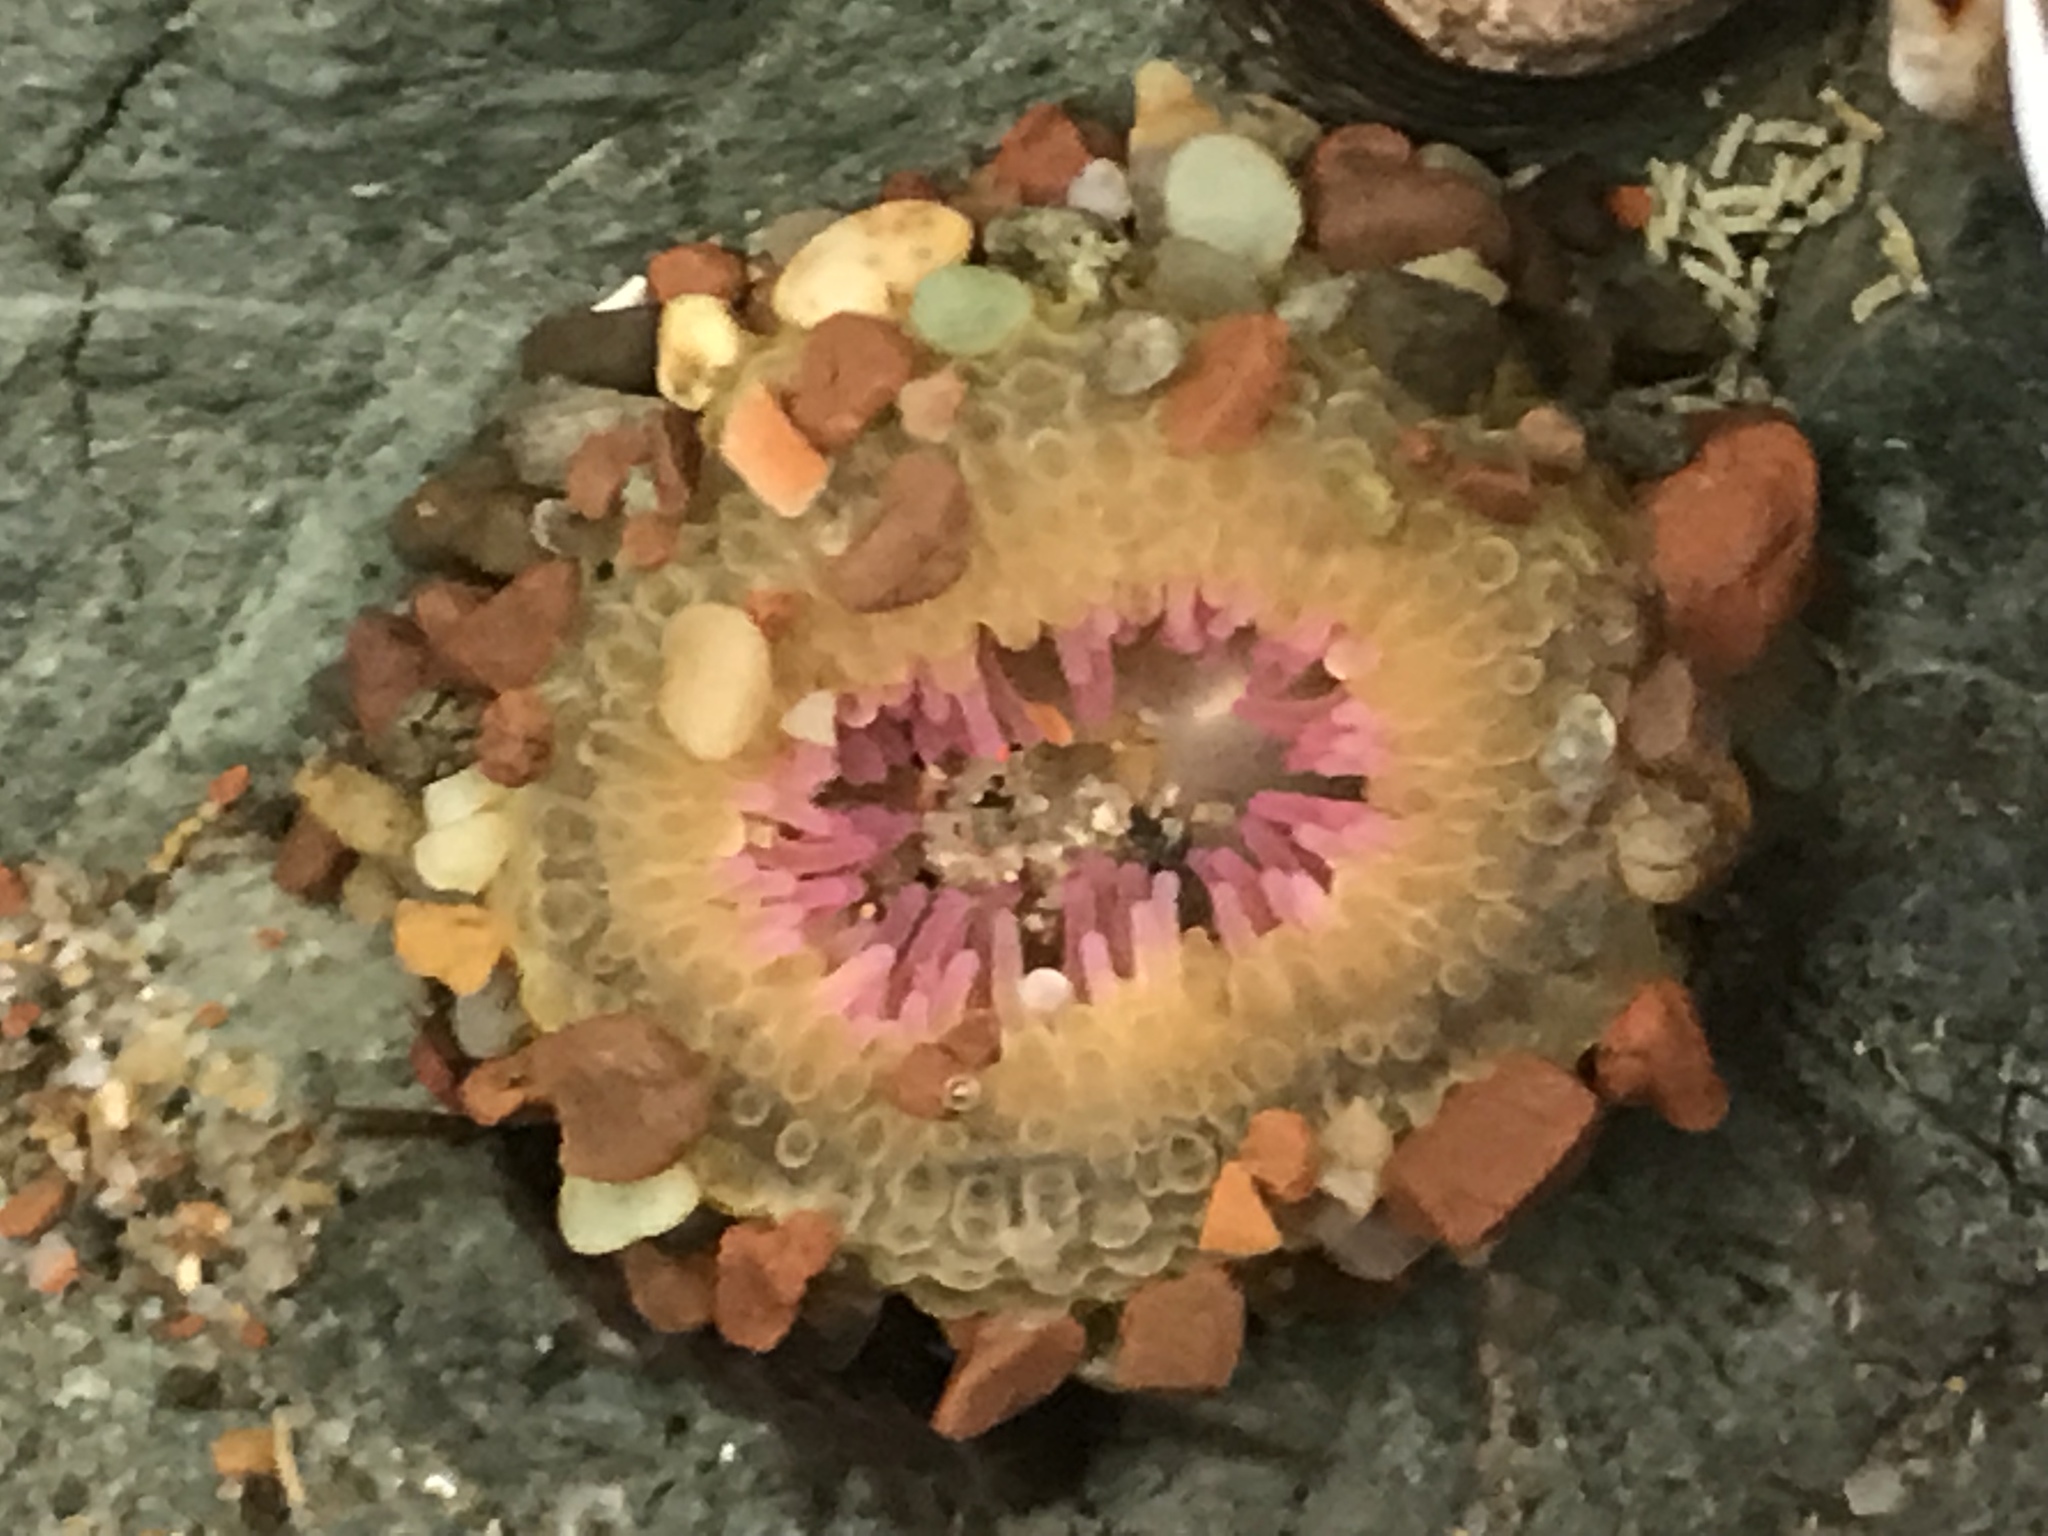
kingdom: Animalia
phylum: Cnidaria
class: Anthozoa
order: Actiniaria
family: Actiniidae
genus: Anthopleura
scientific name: Anthopleura elegantissima
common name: Clonal anemone
